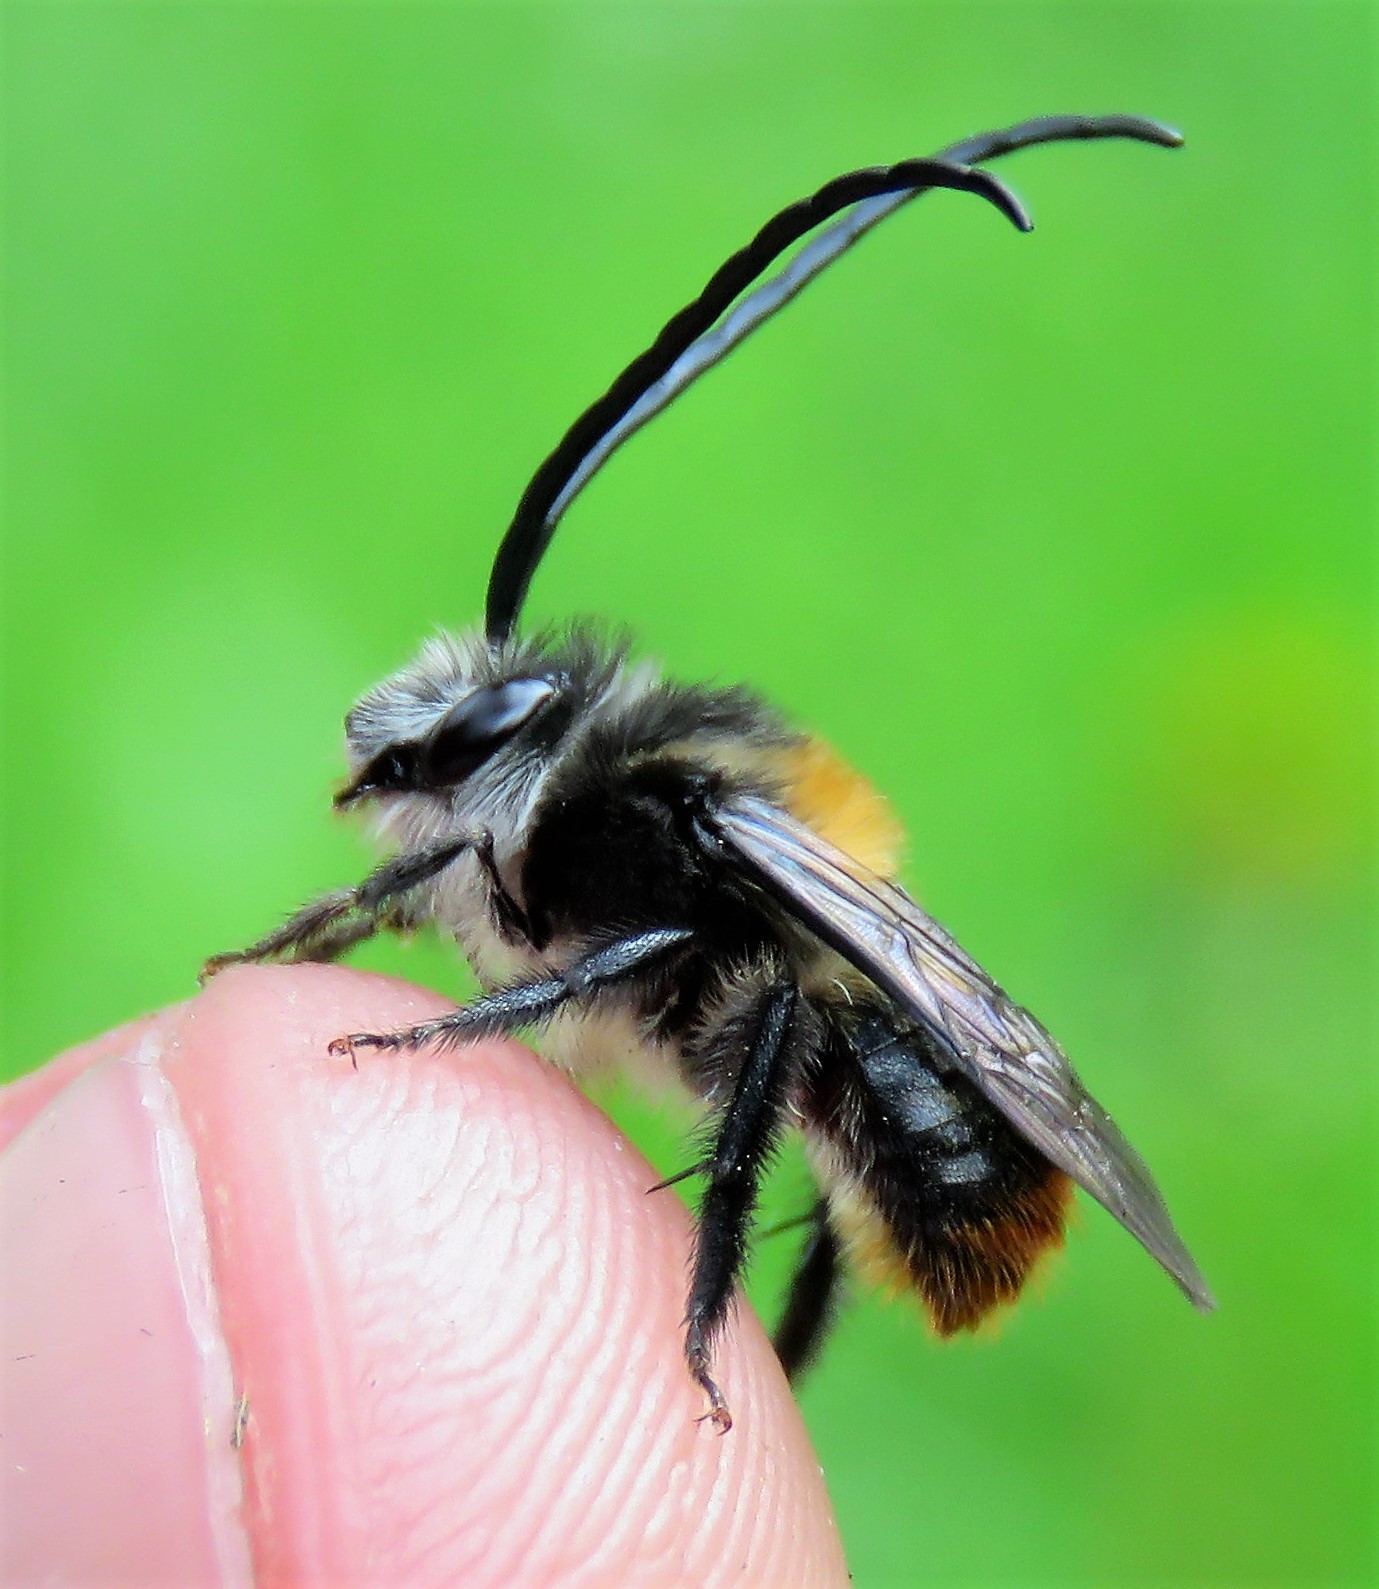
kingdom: Animalia
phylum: Arthropoda
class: Insecta
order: Hymenoptera
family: Apidae
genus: Thygater
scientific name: Thygater aethiops
